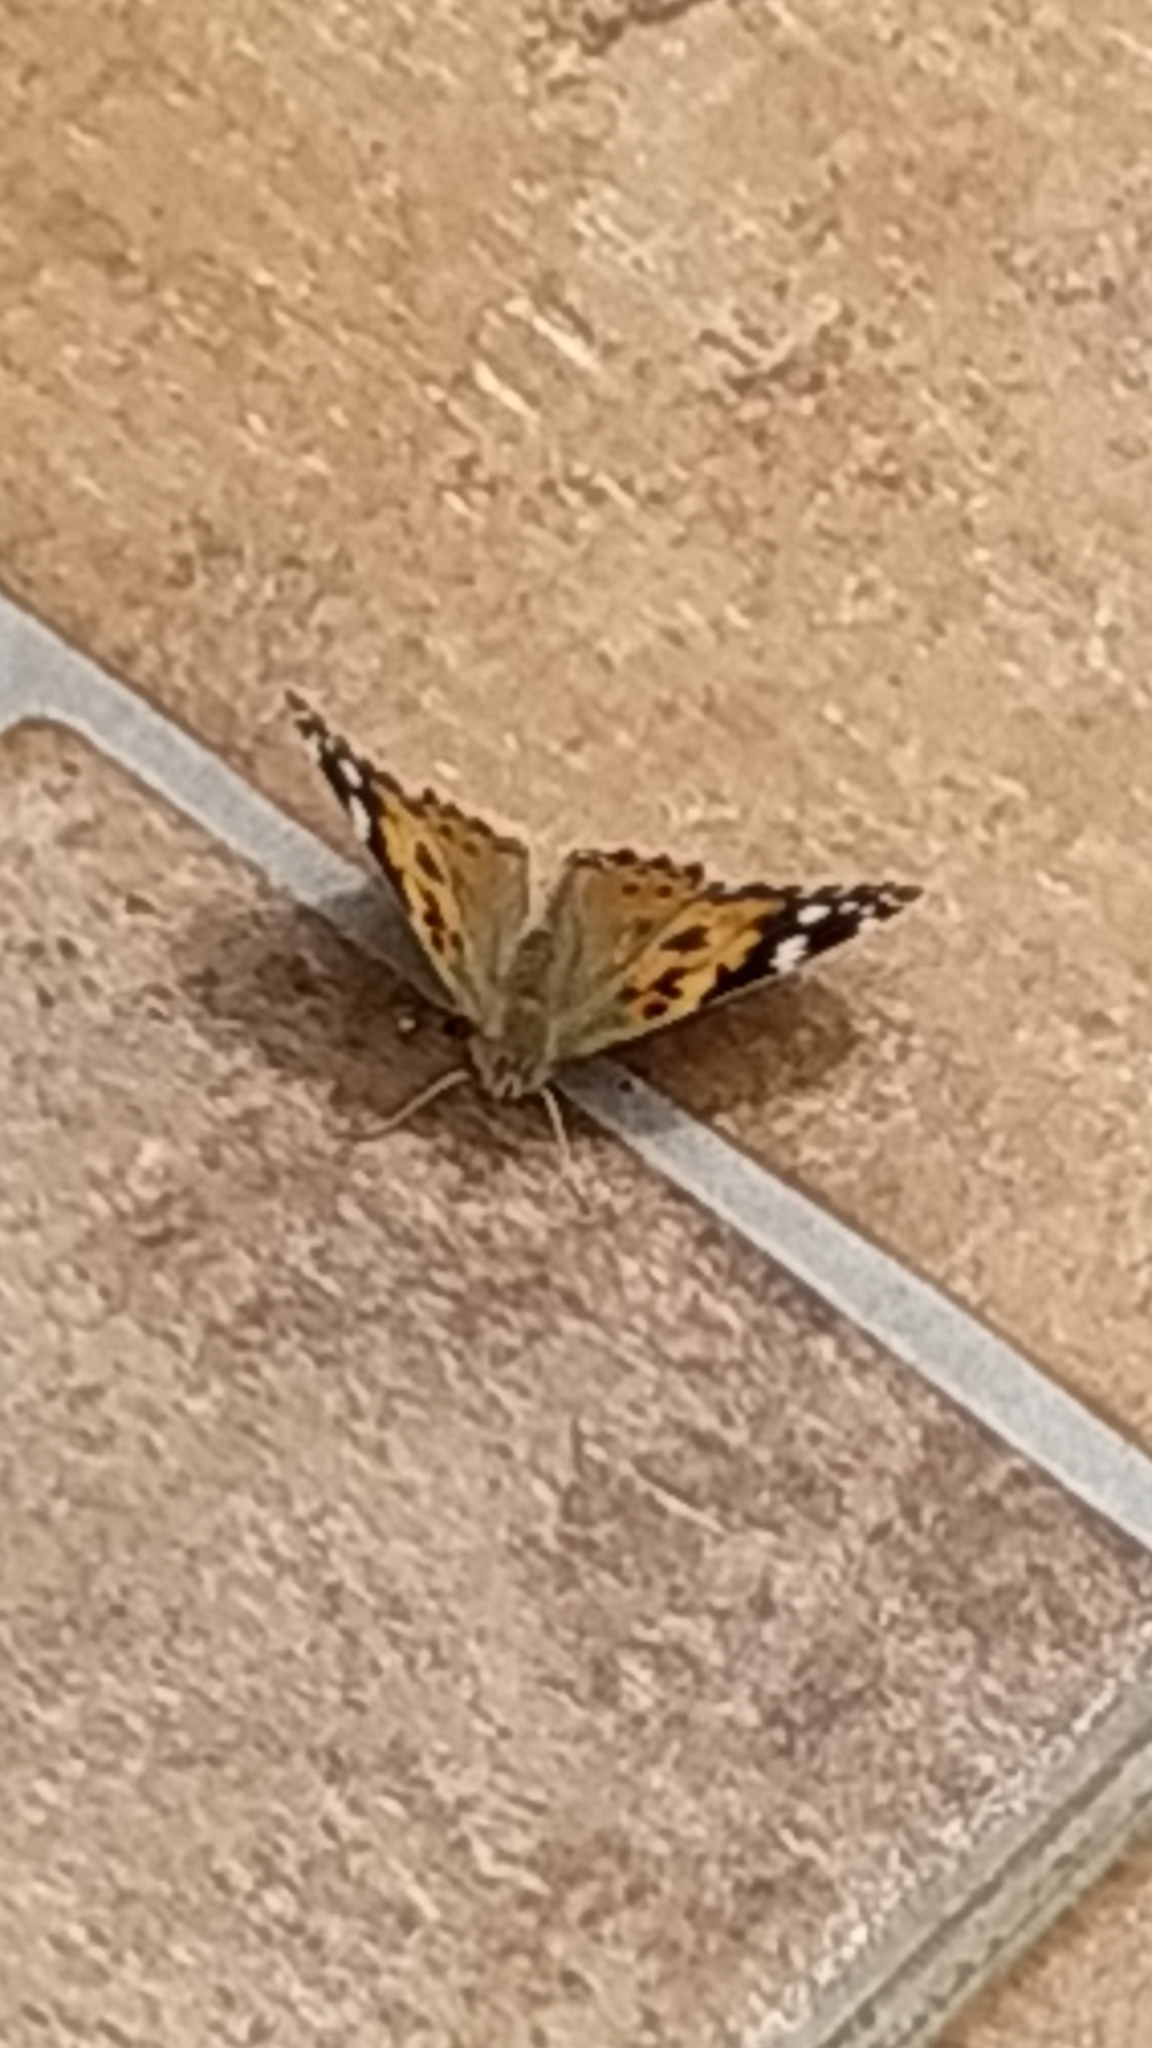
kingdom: Animalia
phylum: Arthropoda
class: Insecta
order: Lepidoptera
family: Nymphalidae
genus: Vanessa
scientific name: Vanessa cardui
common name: Painted lady
